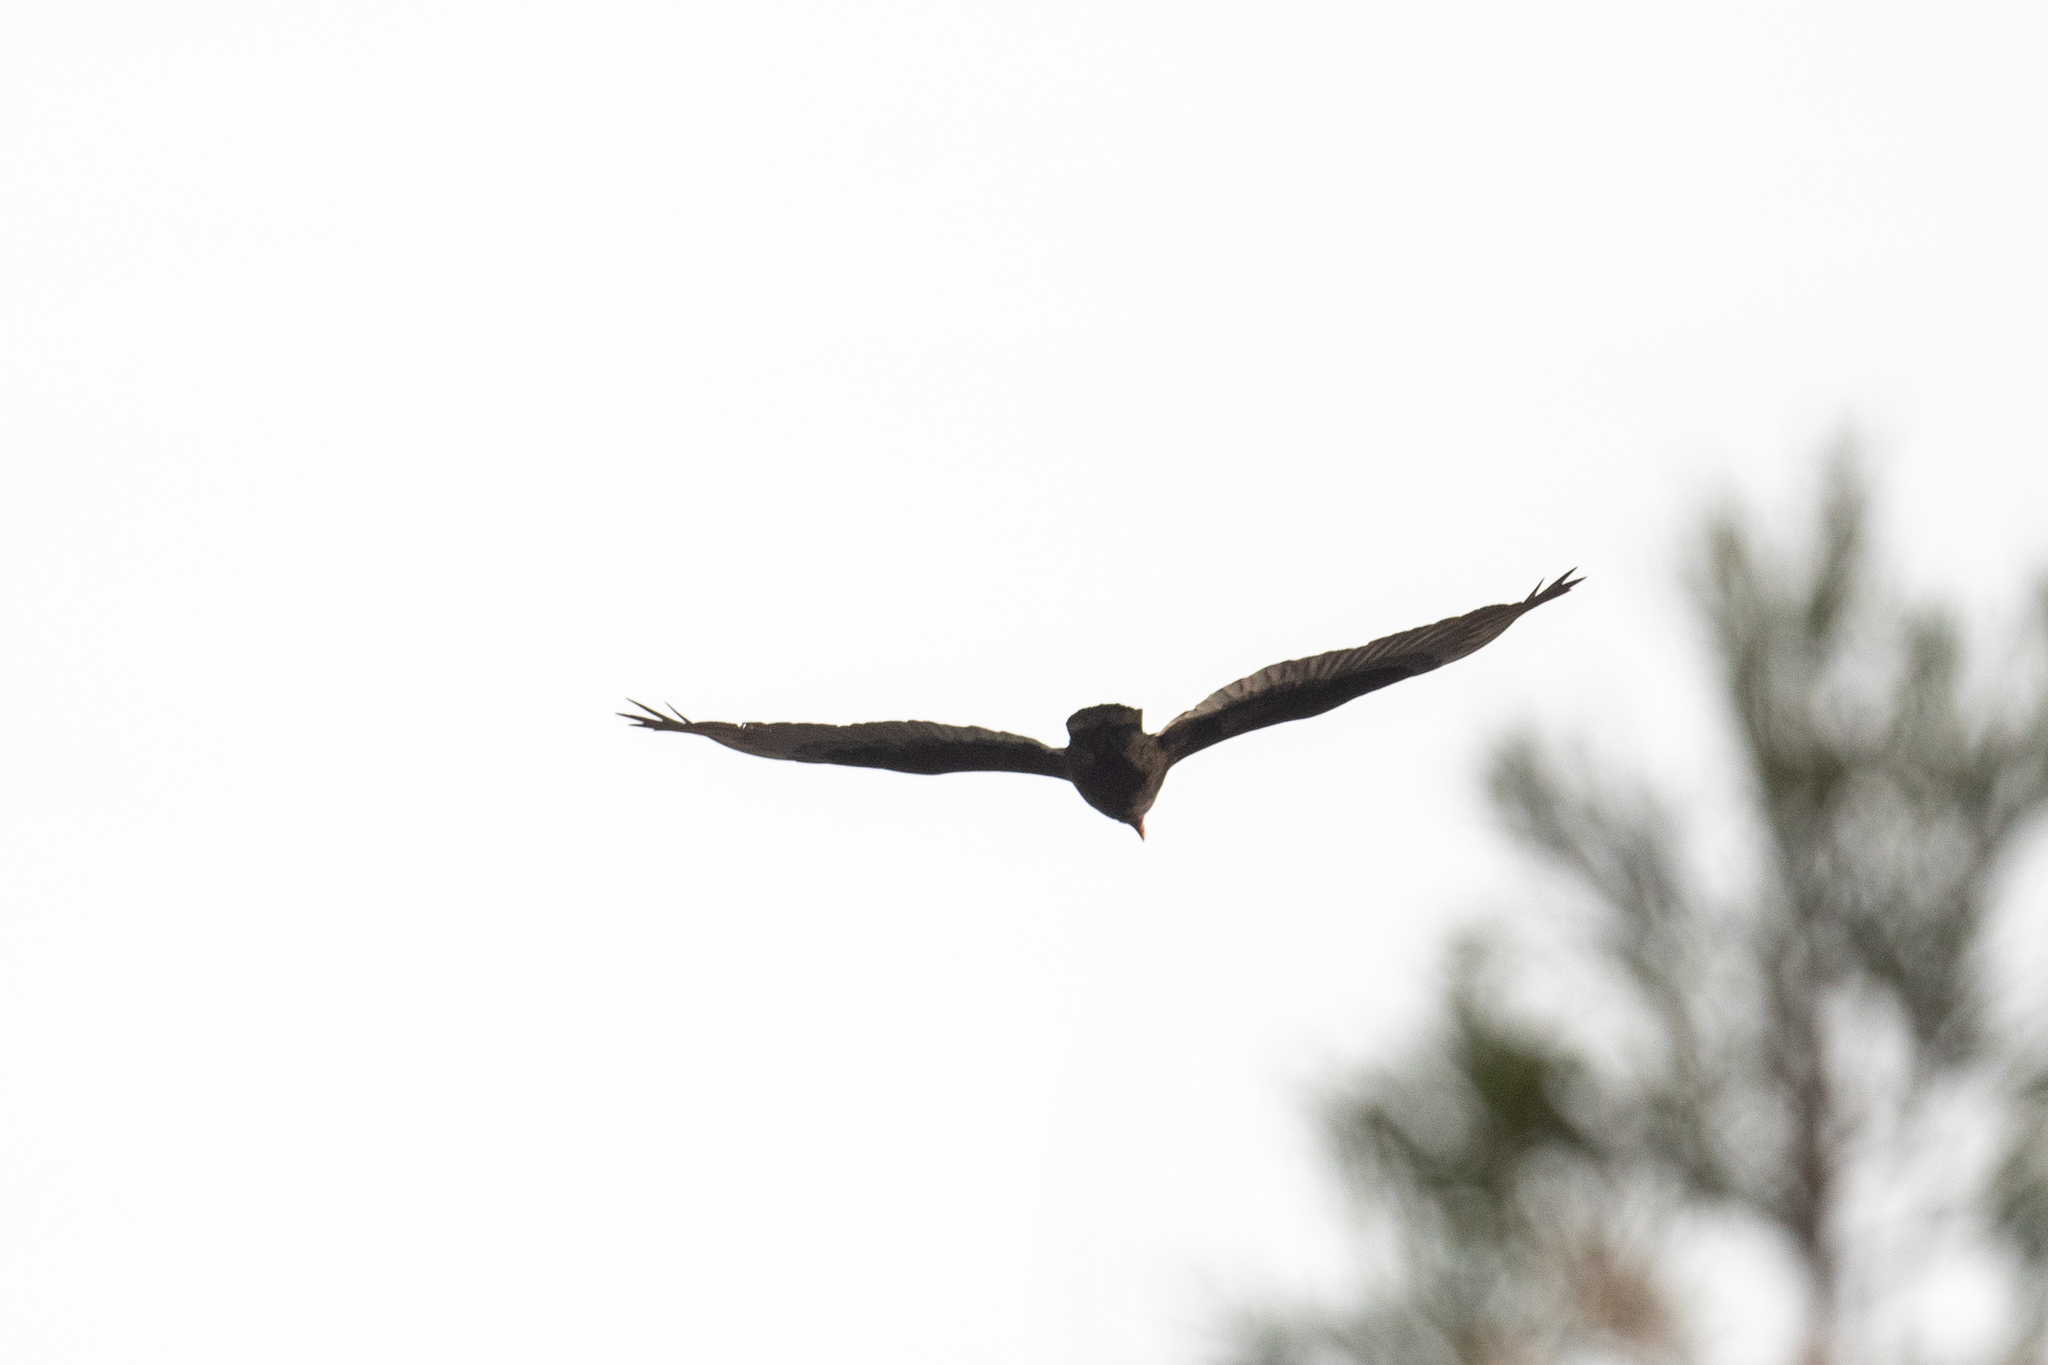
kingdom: Animalia
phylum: Chordata
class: Aves
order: Accipitriformes
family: Cathartidae
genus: Cathartes
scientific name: Cathartes aura
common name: Turkey vulture
